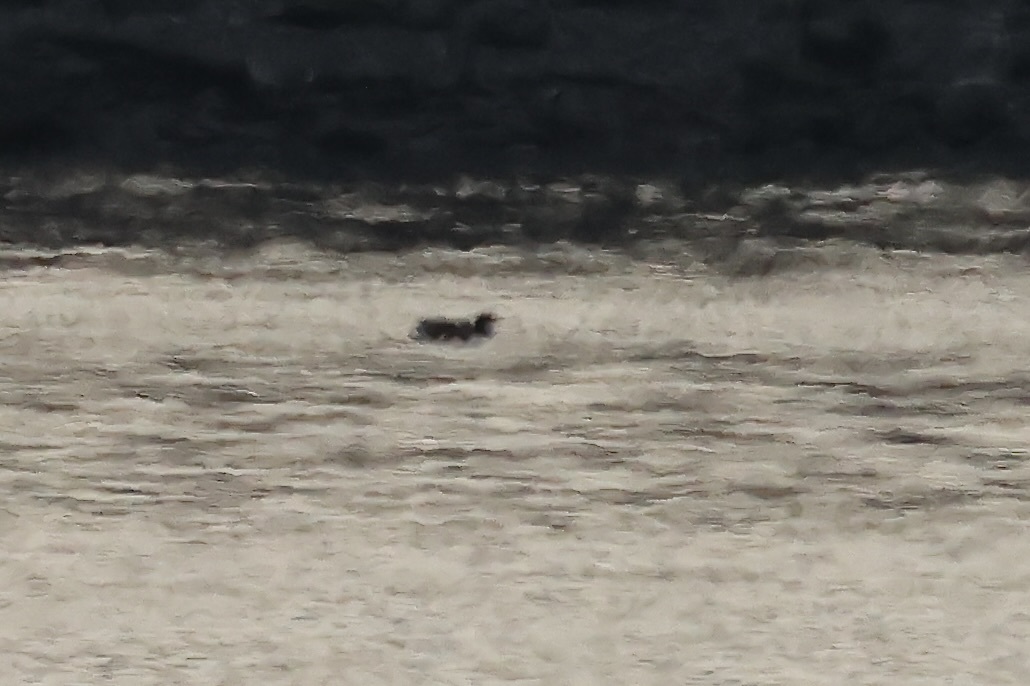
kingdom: Animalia
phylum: Chordata
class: Aves
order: Charadriiformes
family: Alcidae
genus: Uria
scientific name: Uria lomvia
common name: Thick-billed murre
